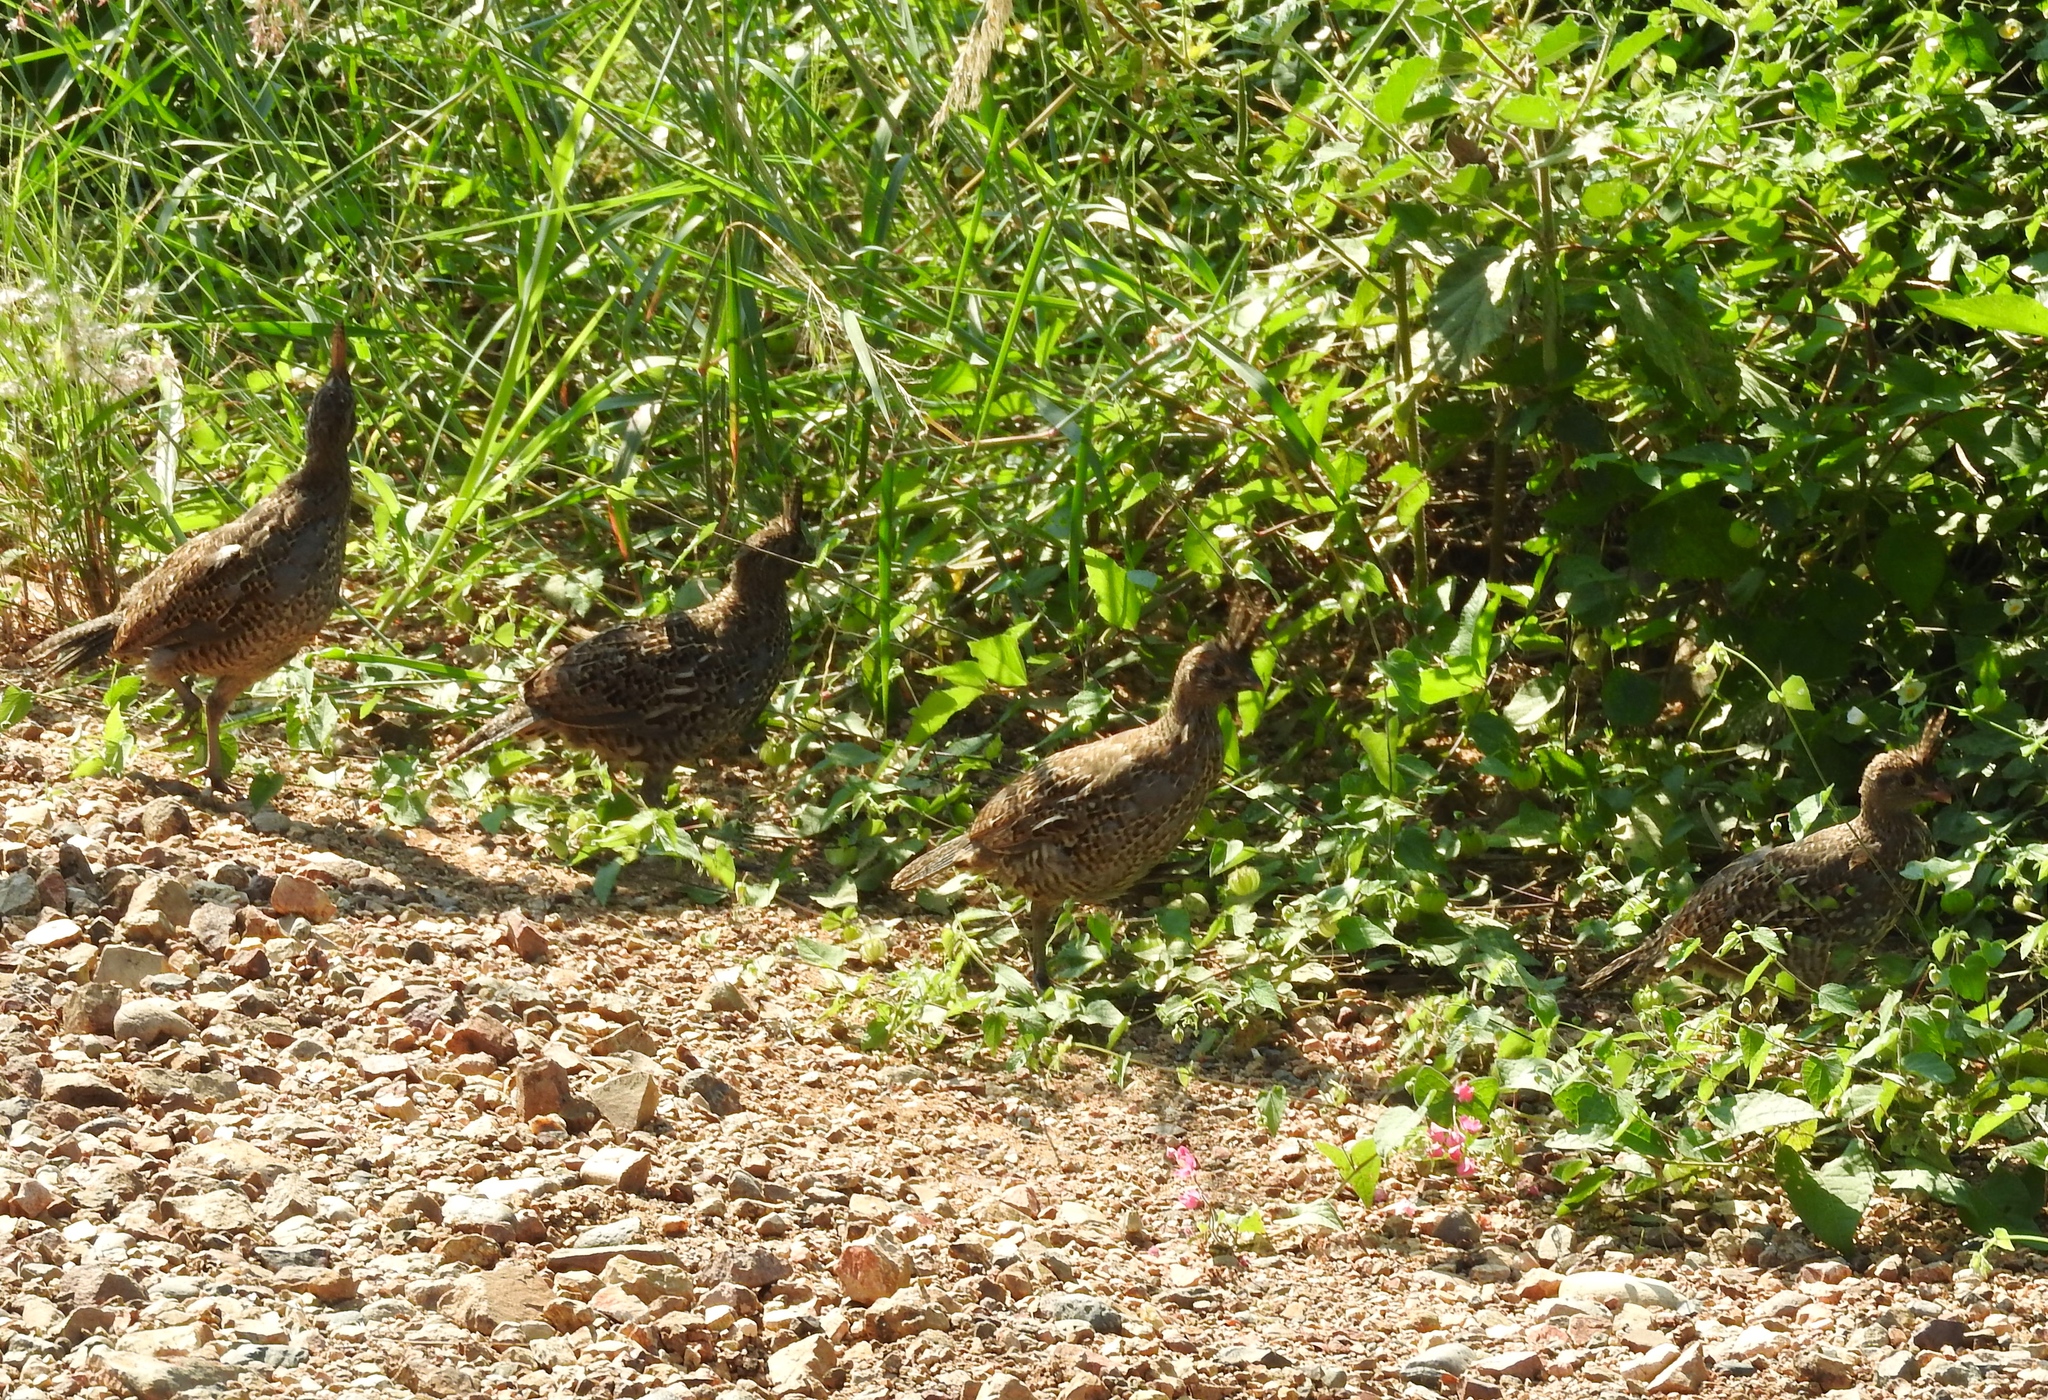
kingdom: Animalia
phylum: Chordata
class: Aves
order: Galliformes
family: Odontophoridae
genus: Callipepla
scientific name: Callipepla douglasii
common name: Elegant quail
